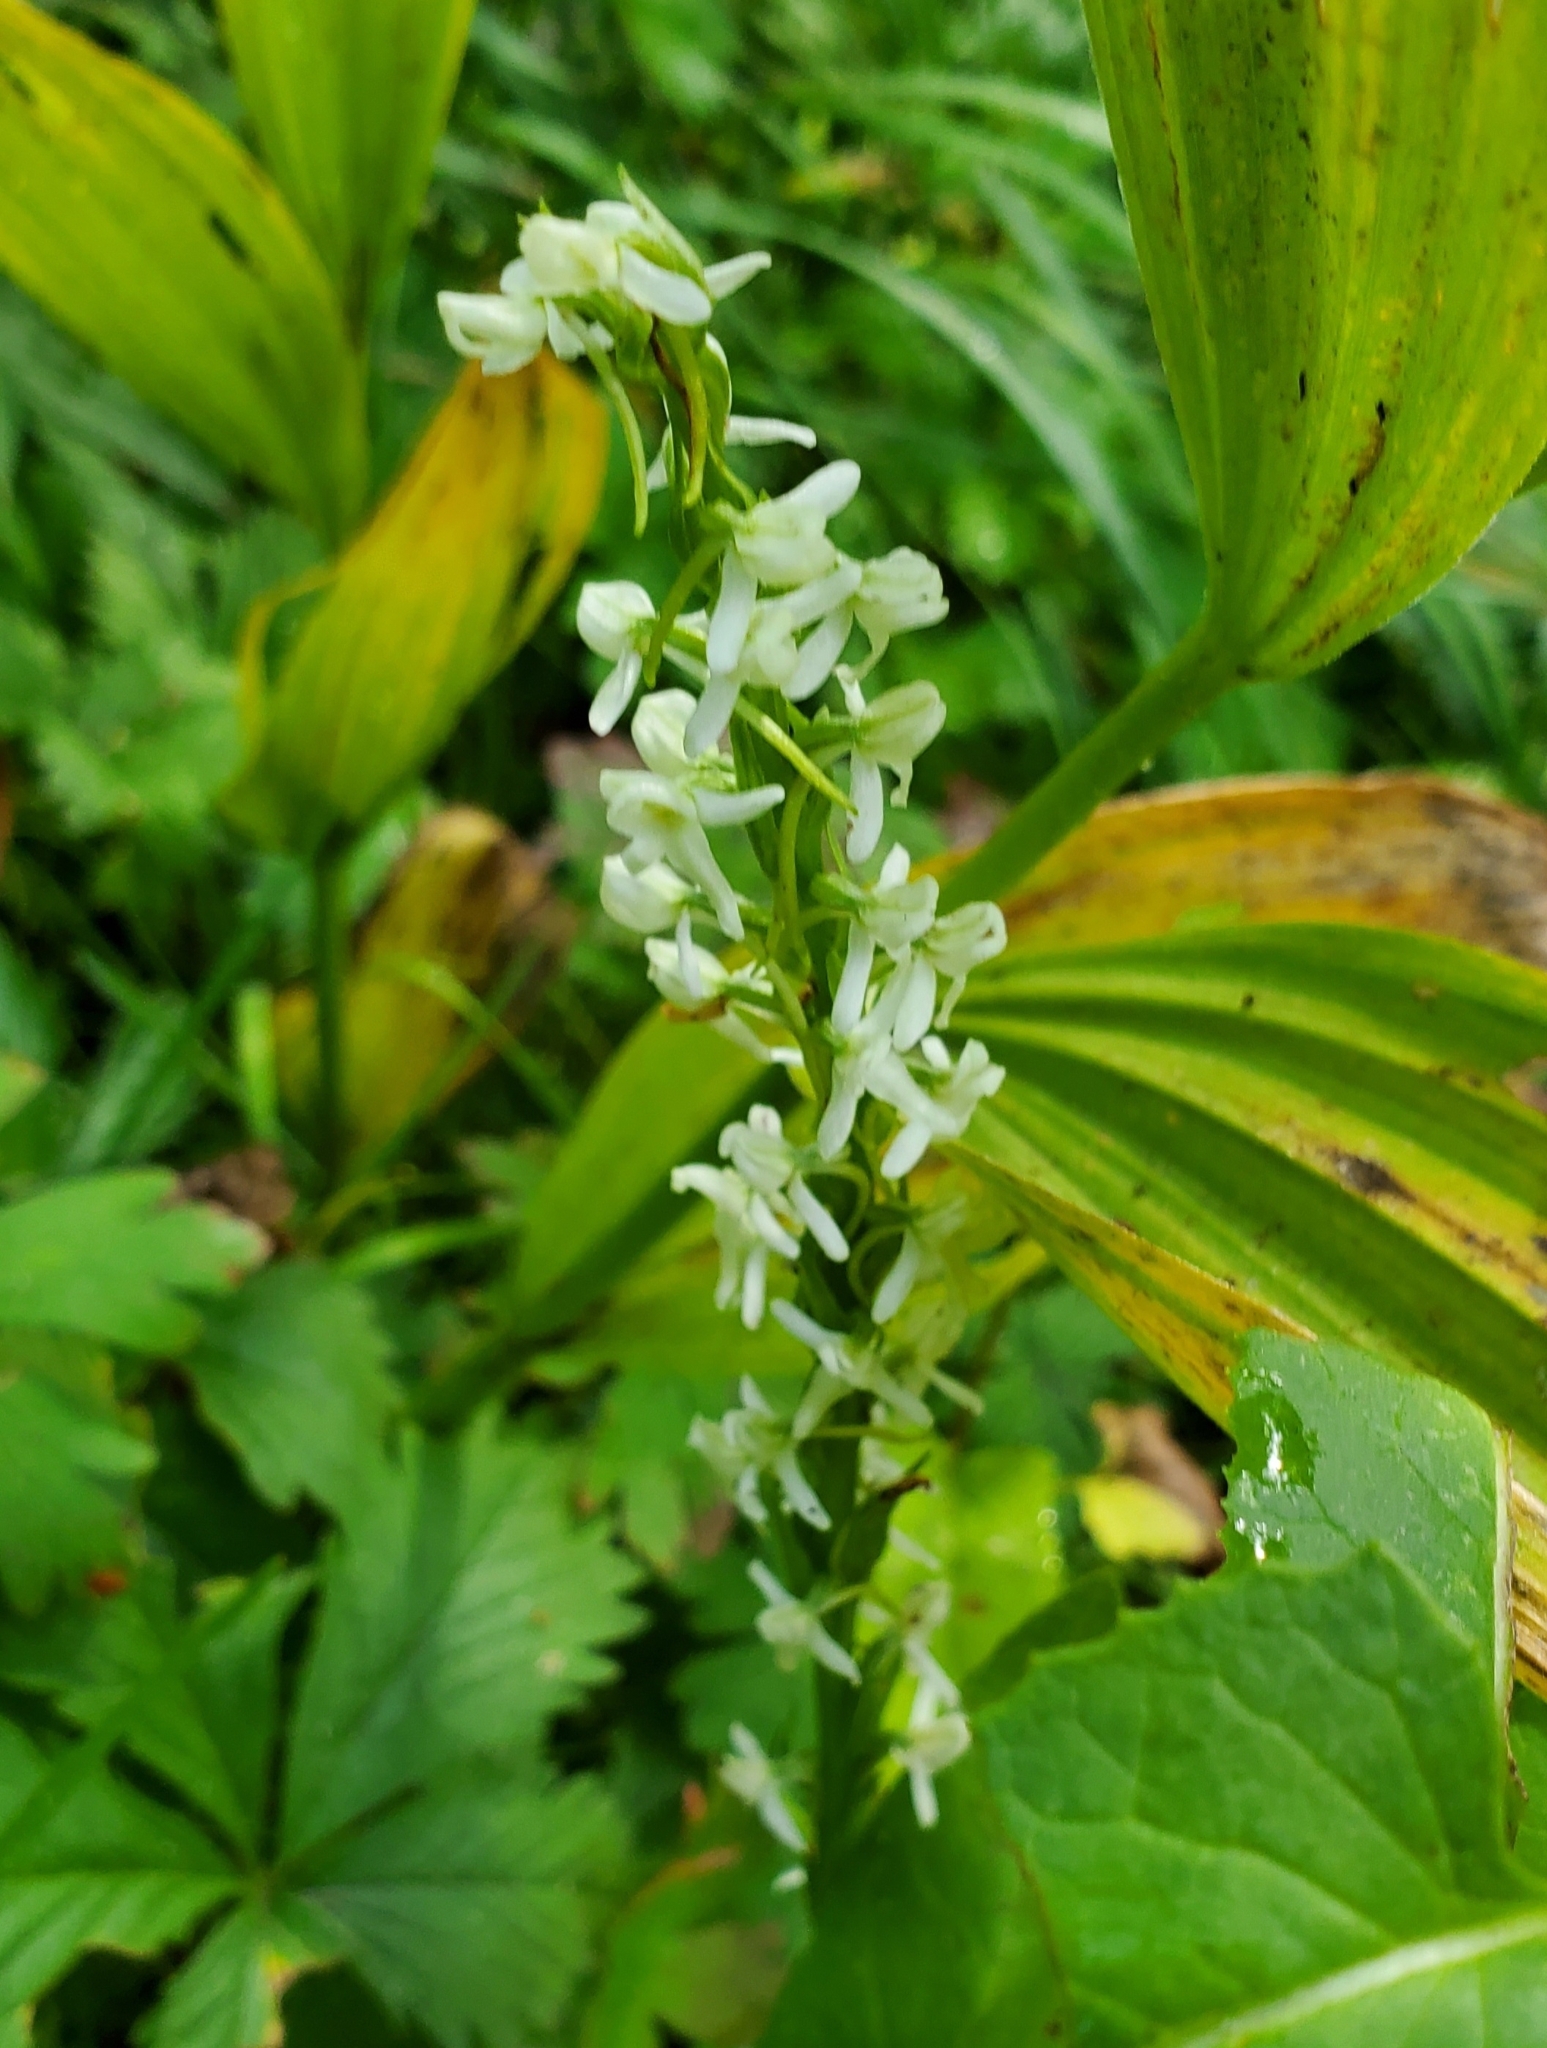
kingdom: Plantae
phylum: Tracheophyta
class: Liliopsida
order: Asparagales
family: Orchidaceae
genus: Platanthera
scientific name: Platanthera dilatata
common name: Bog candles
